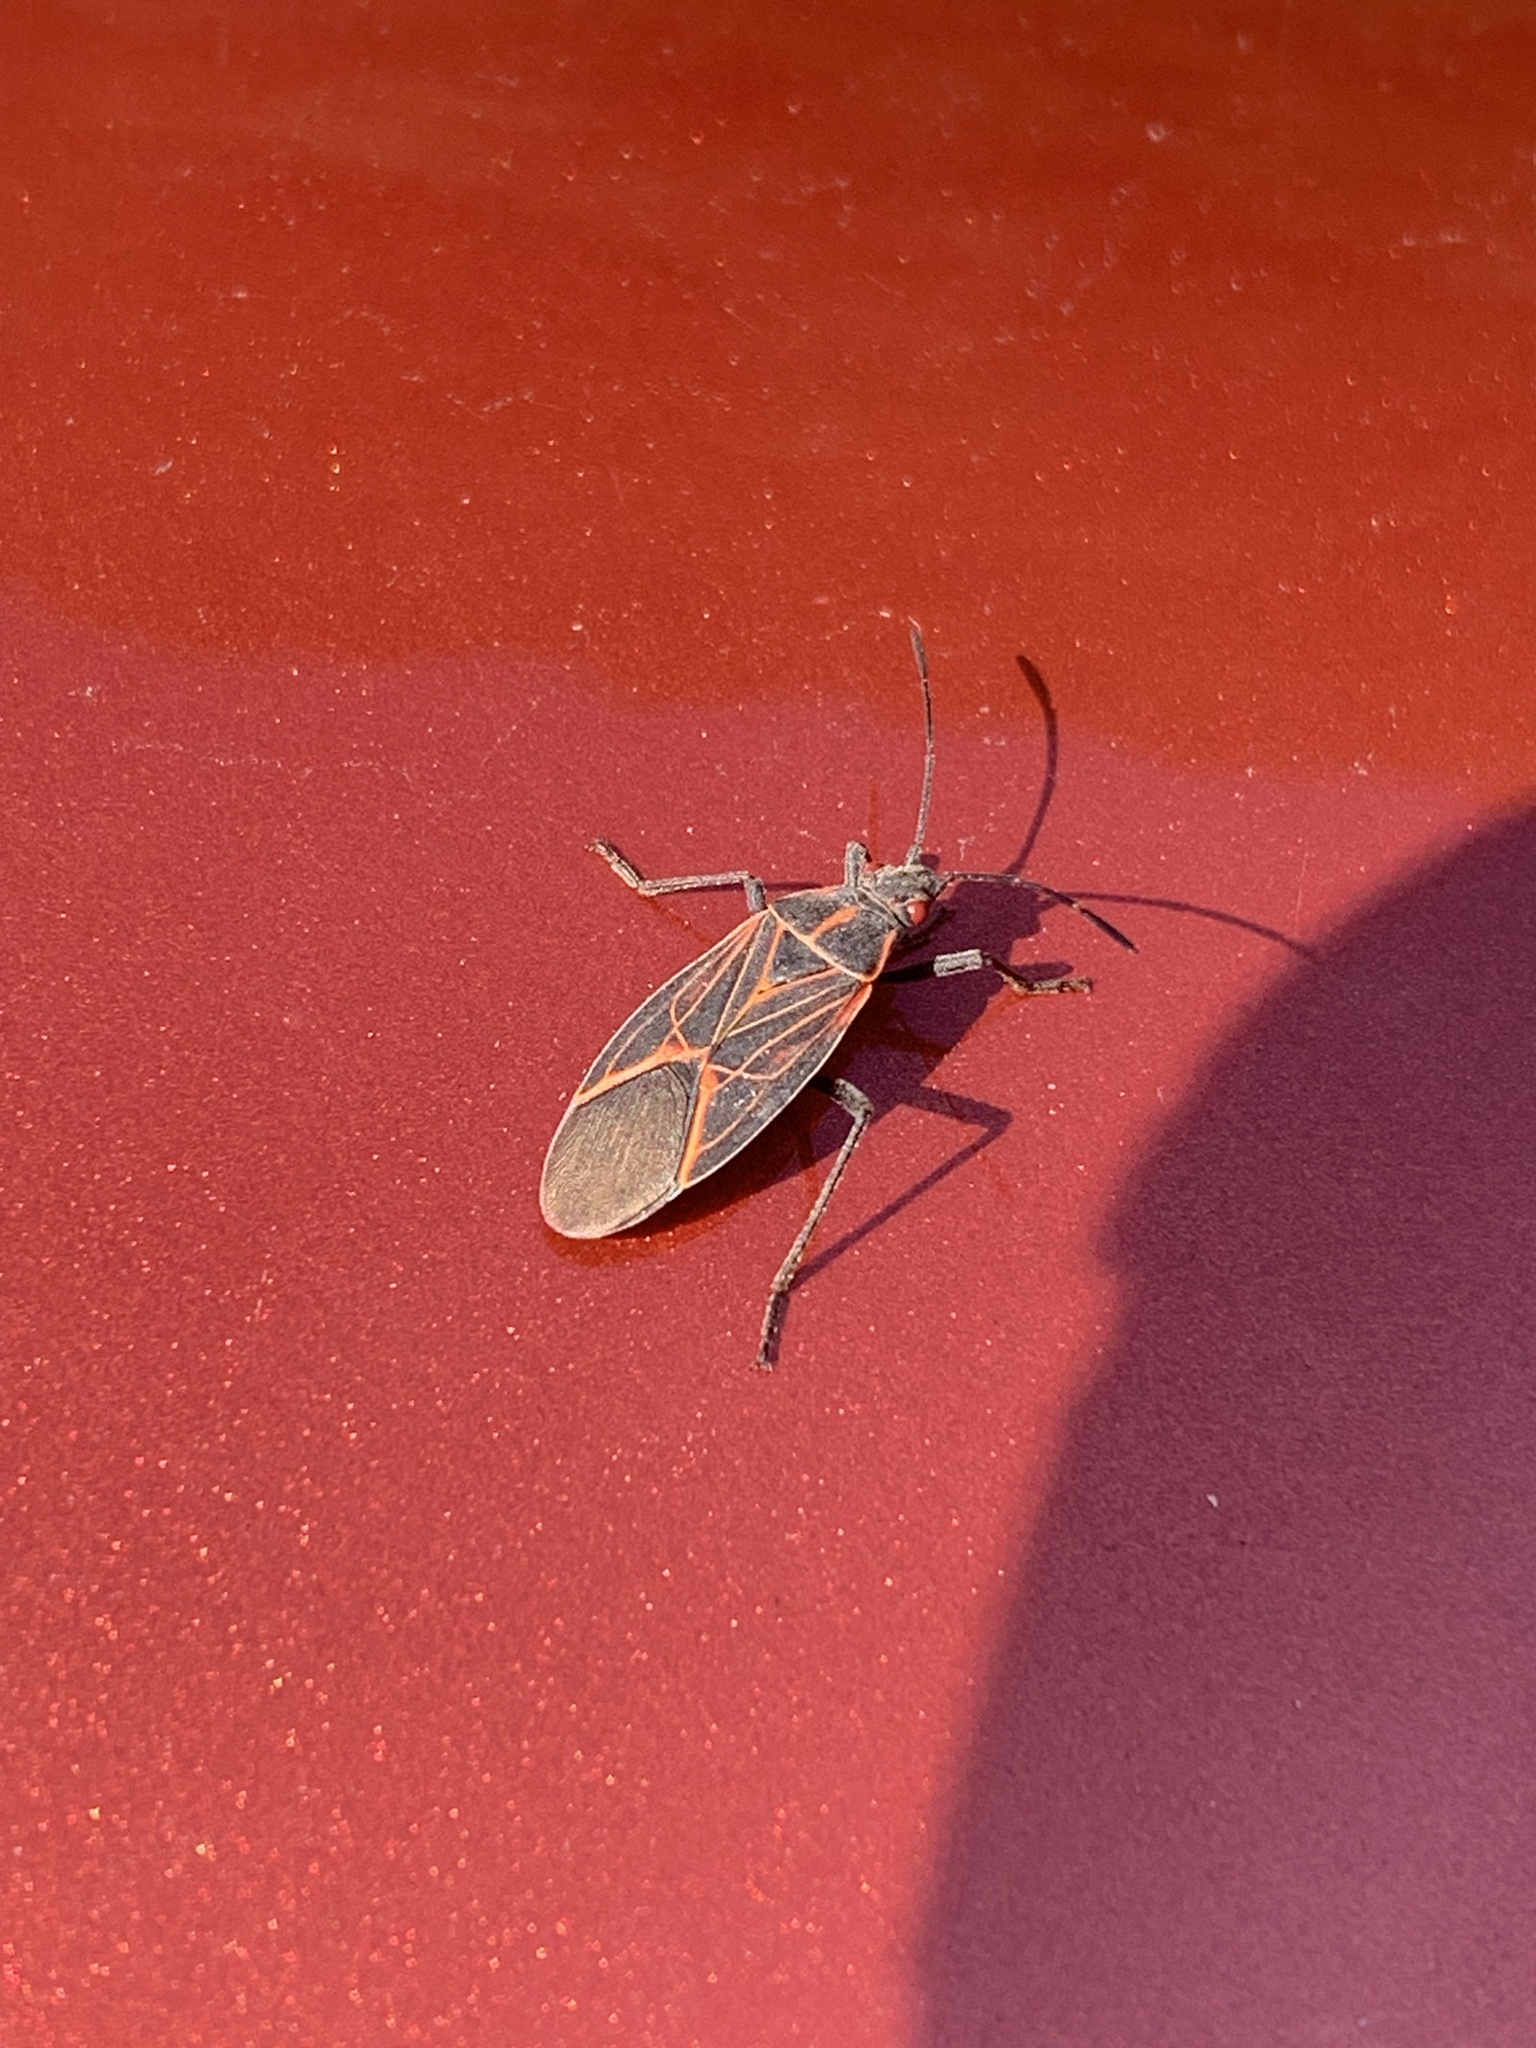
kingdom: Animalia
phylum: Arthropoda
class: Insecta
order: Hemiptera
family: Rhopalidae
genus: Boisea
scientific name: Boisea rubrolineata
